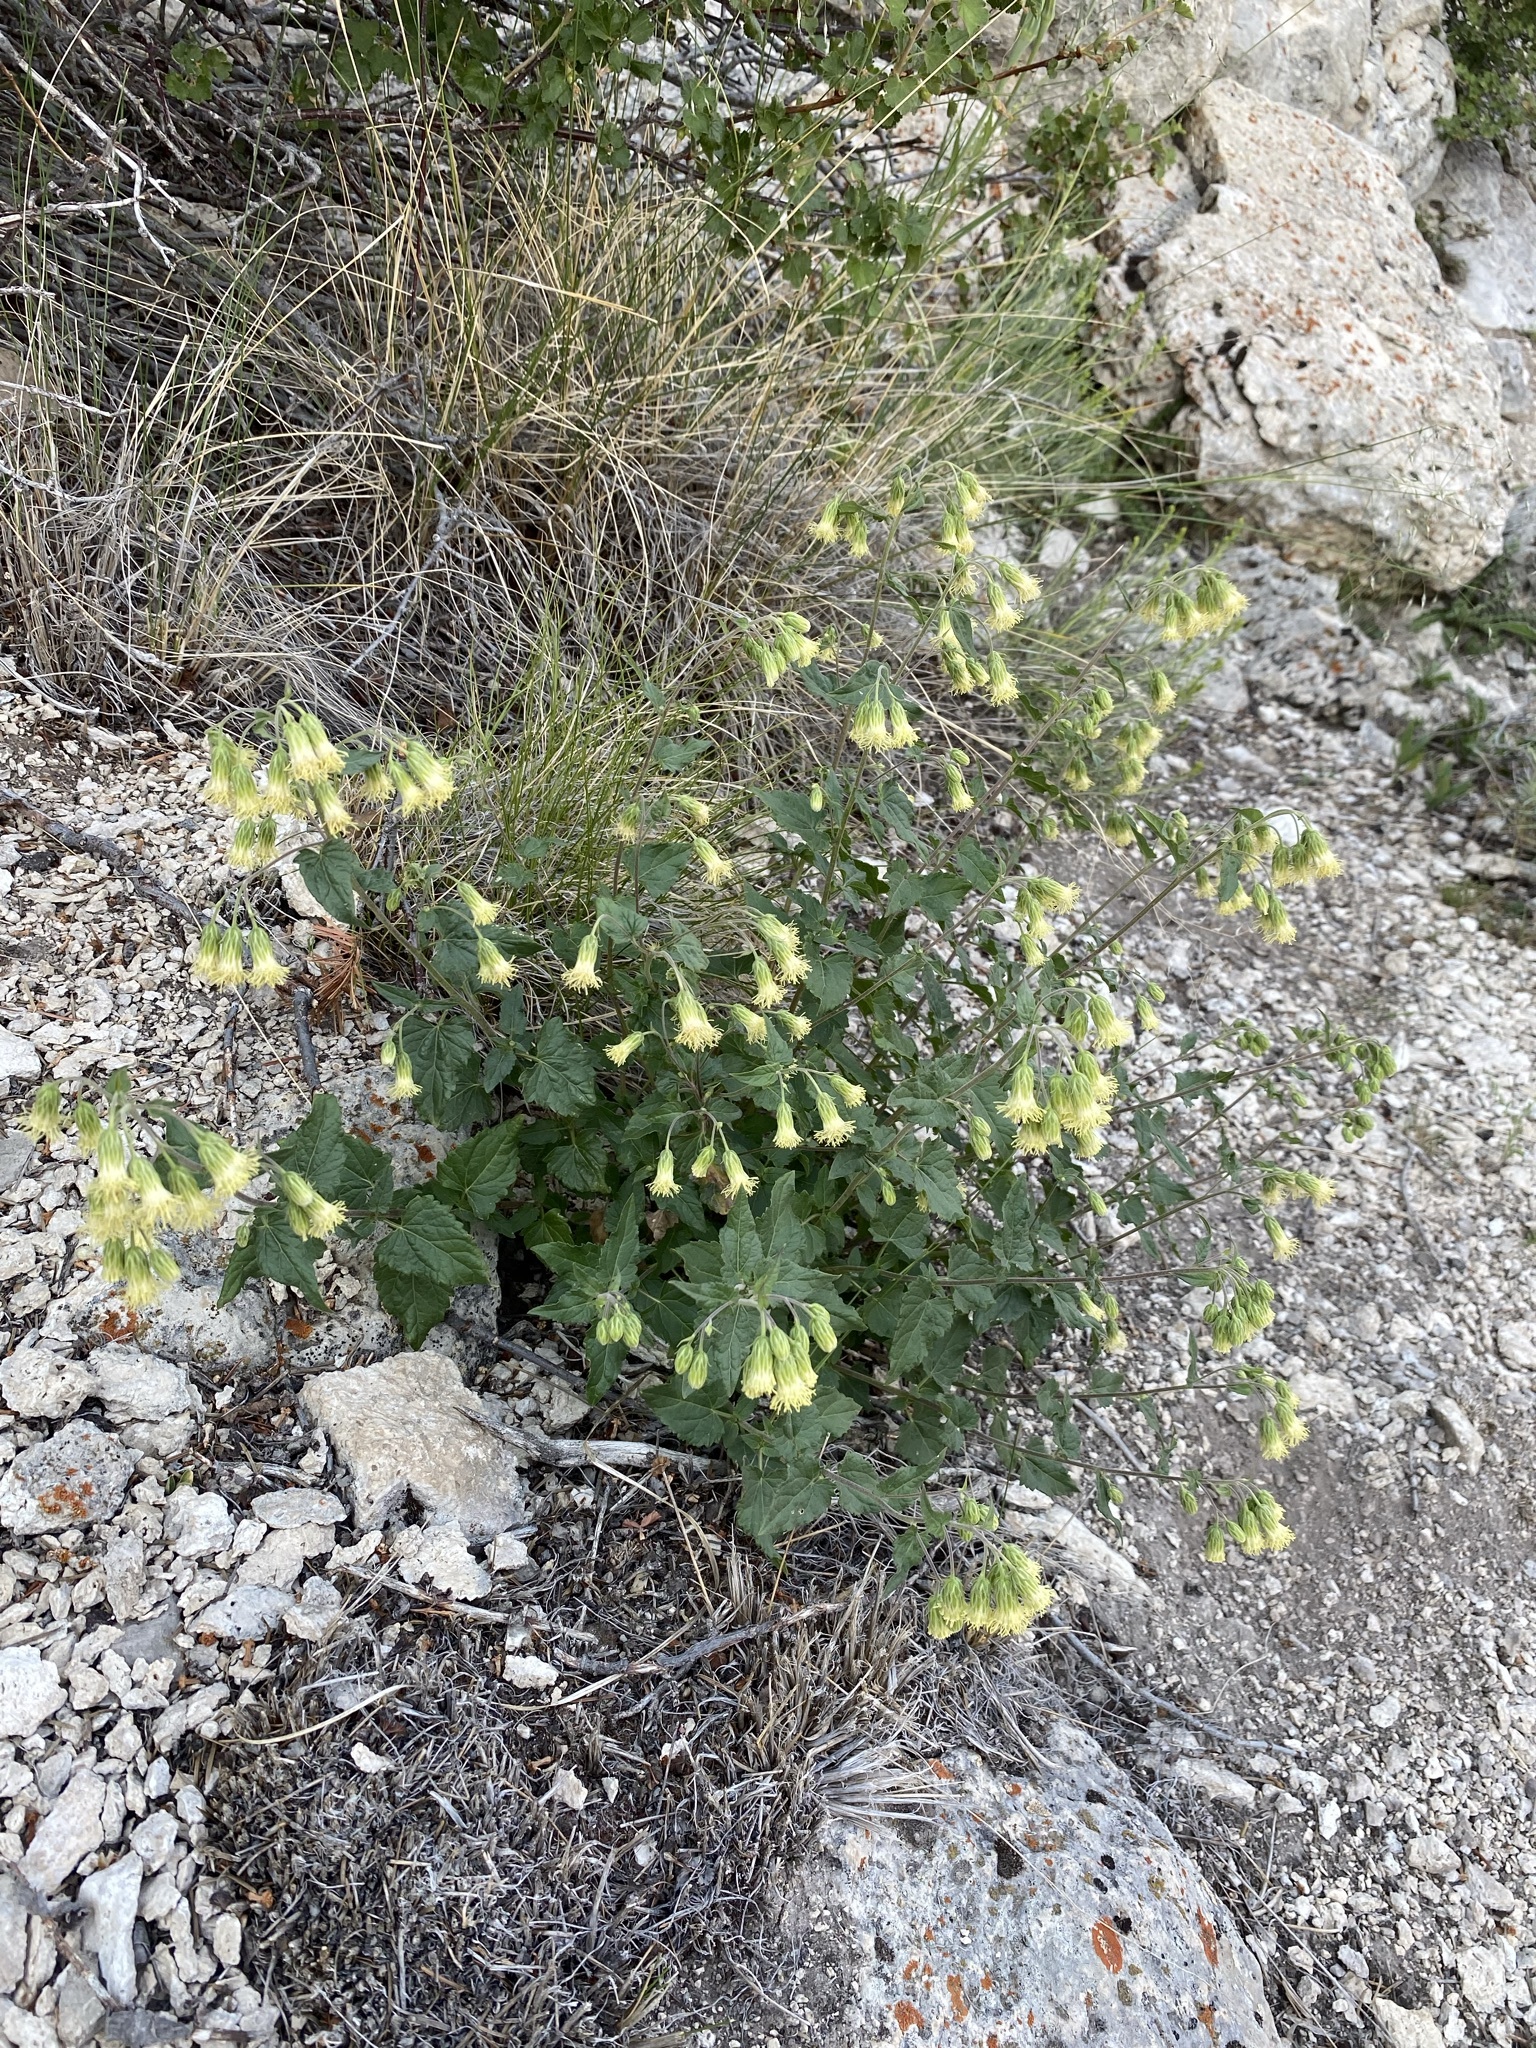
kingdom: Plantae
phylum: Tracheophyta
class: Magnoliopsida
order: Asterales
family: Asteraceae
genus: Brickellia
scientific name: Brickellia grandiflora
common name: Large-flowered brickellia
